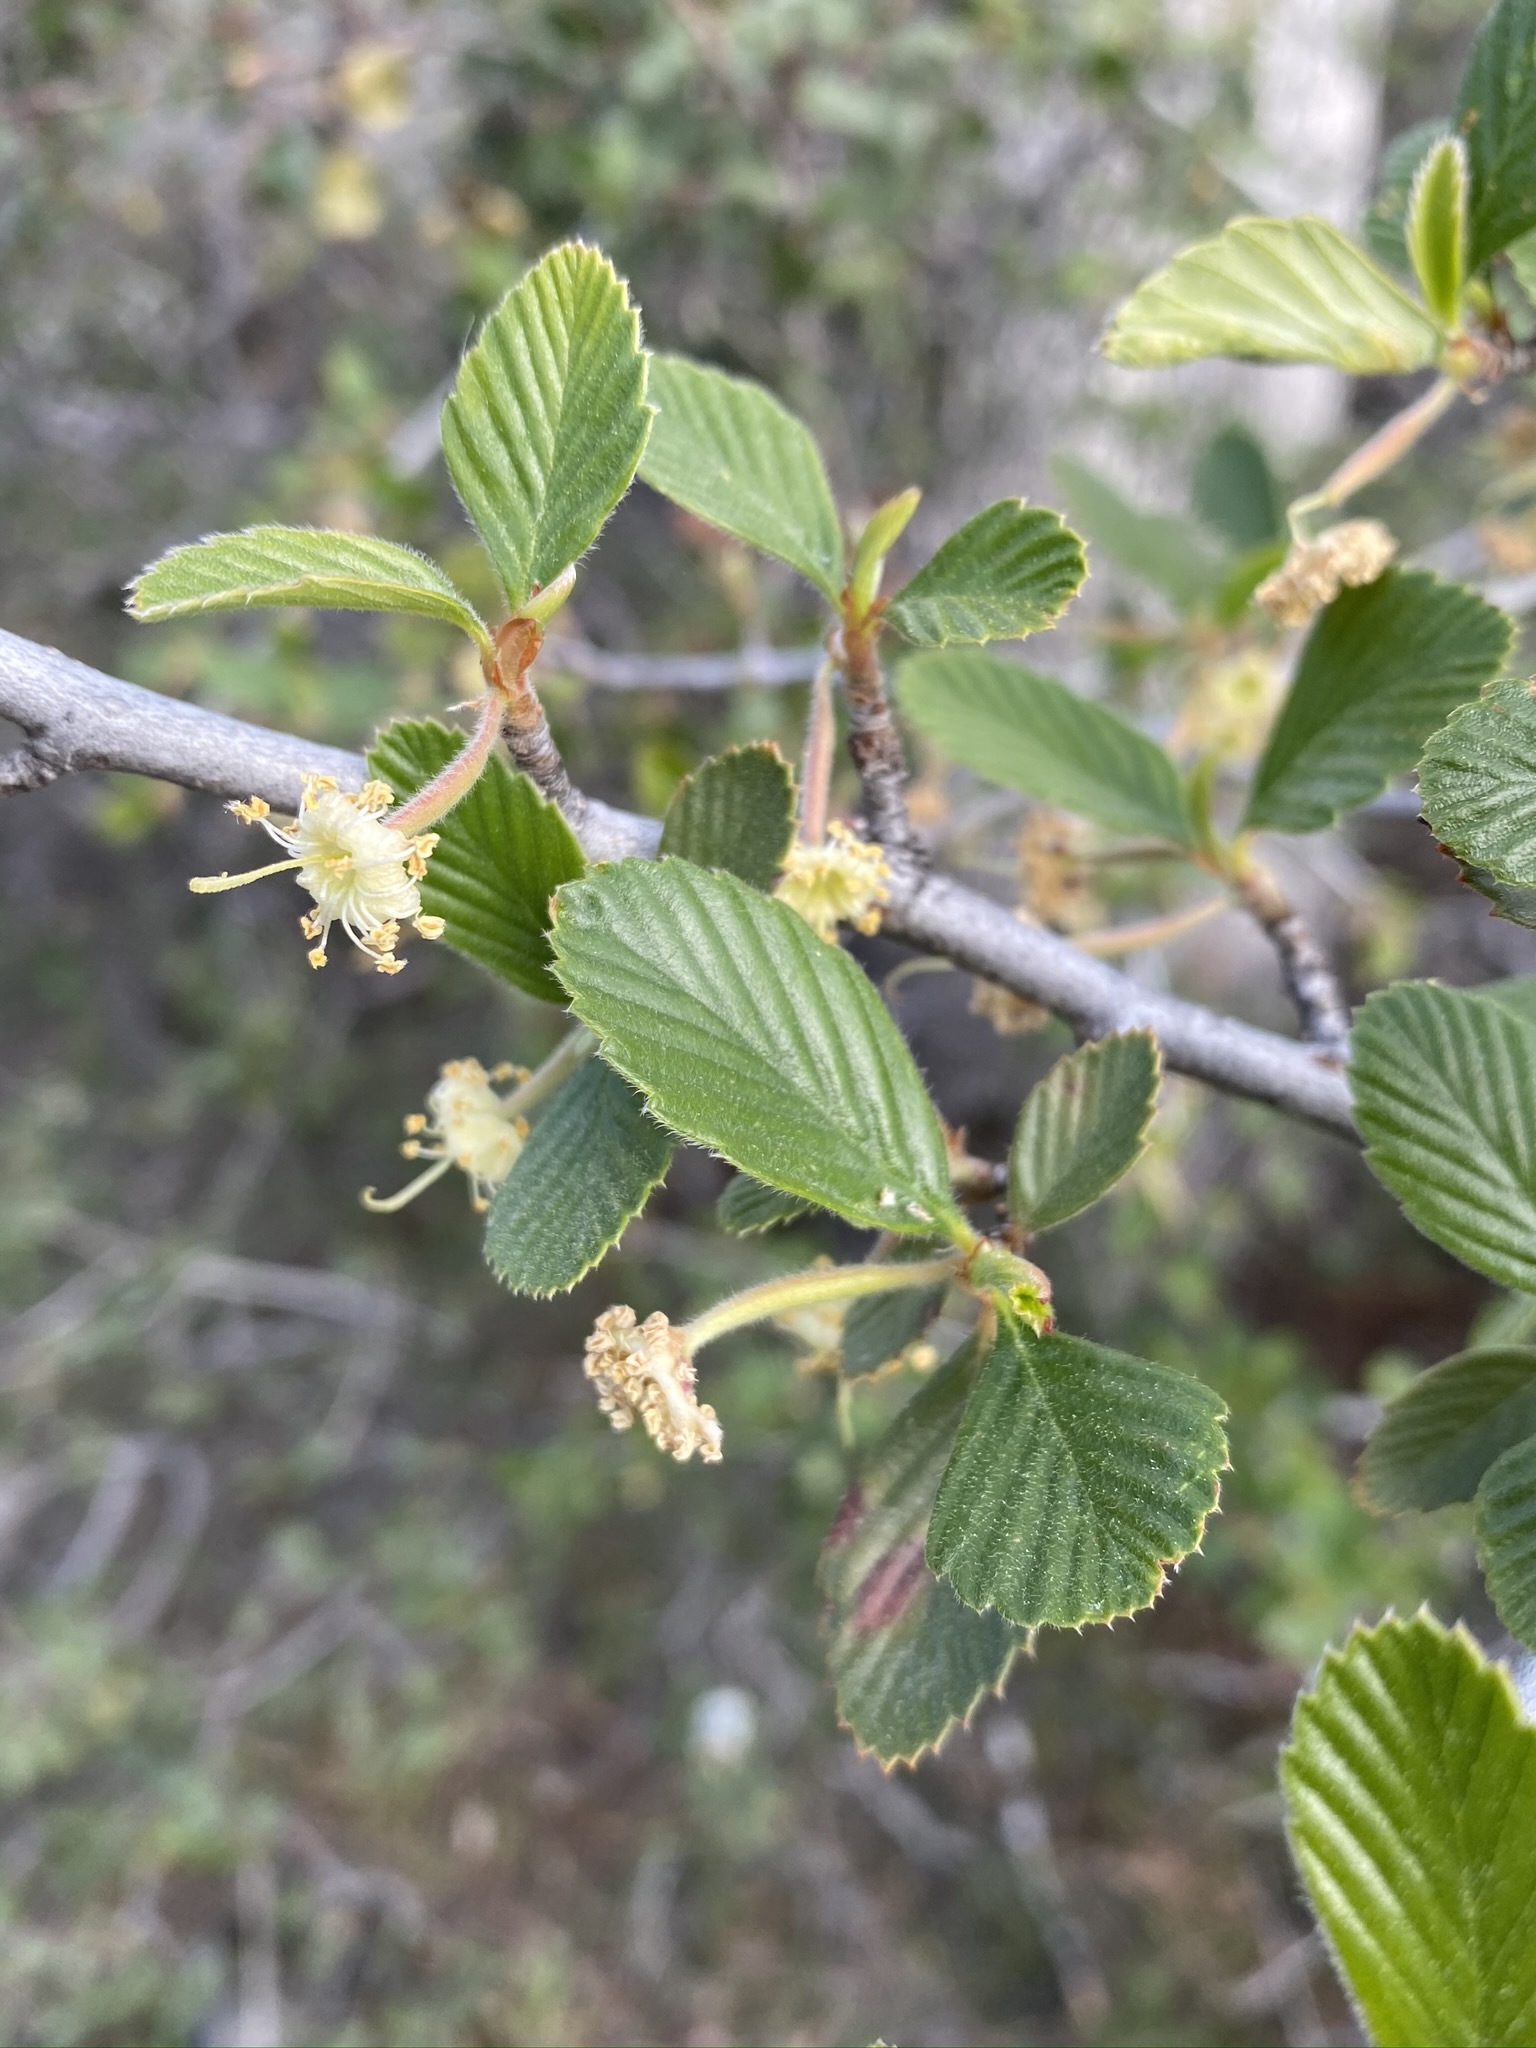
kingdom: Plantae
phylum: Tracheophyta
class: Magnoliopsida
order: Rosales
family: Rosaceae
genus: Cercocarpus
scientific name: Cercocarpus betuloides
